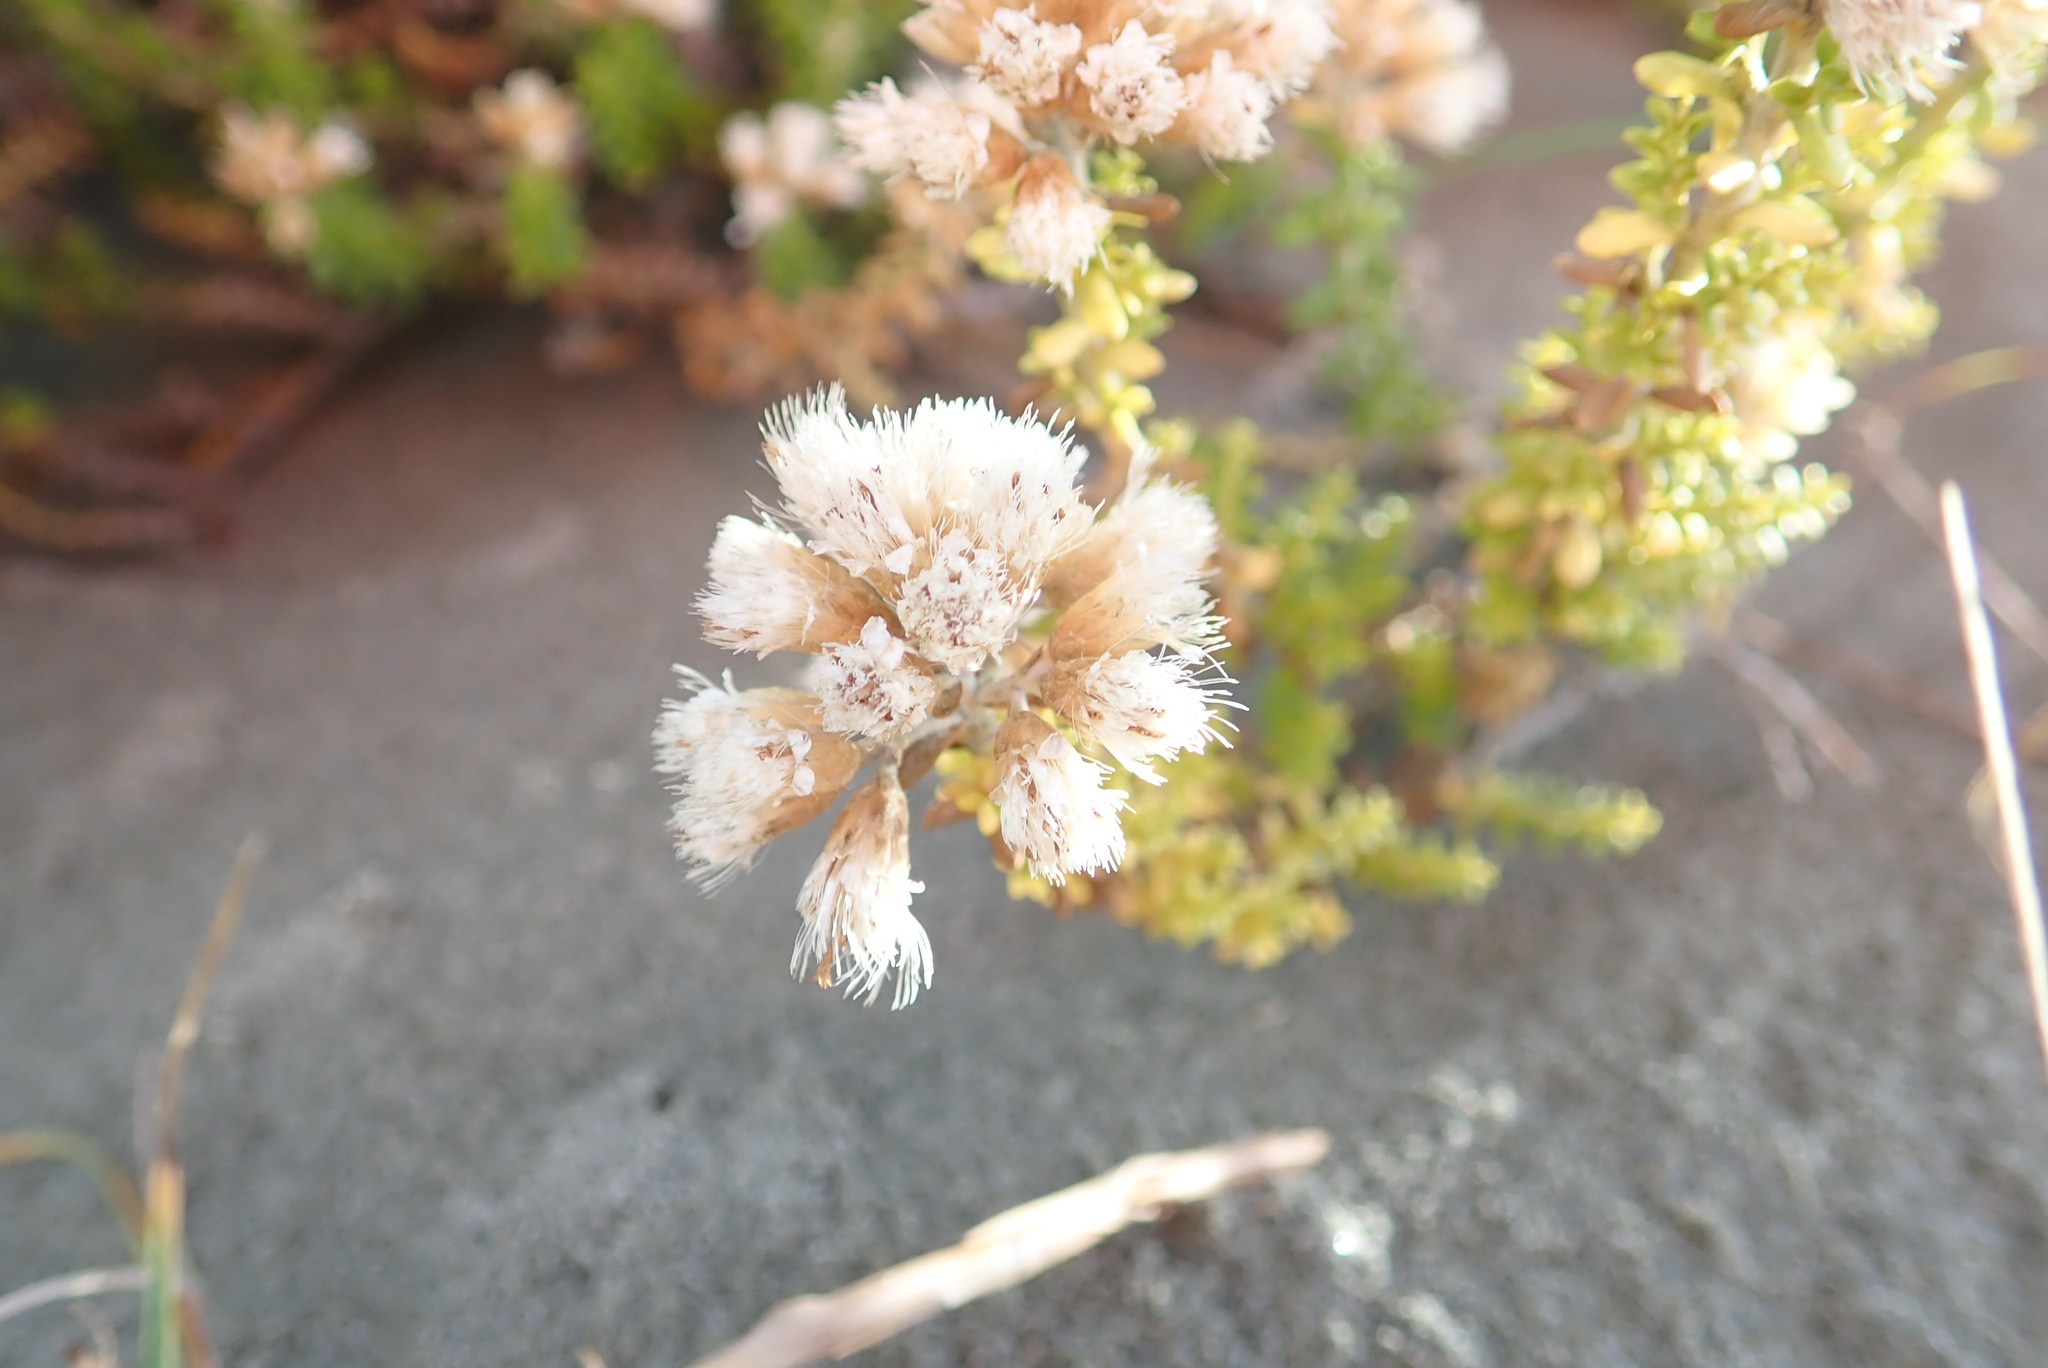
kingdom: Plantae
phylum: Tracheophyta
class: Magnoliopsida
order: Asterales
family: Asteraceae
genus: Ozothamnus
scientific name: Ozothamnus leptophyllus
